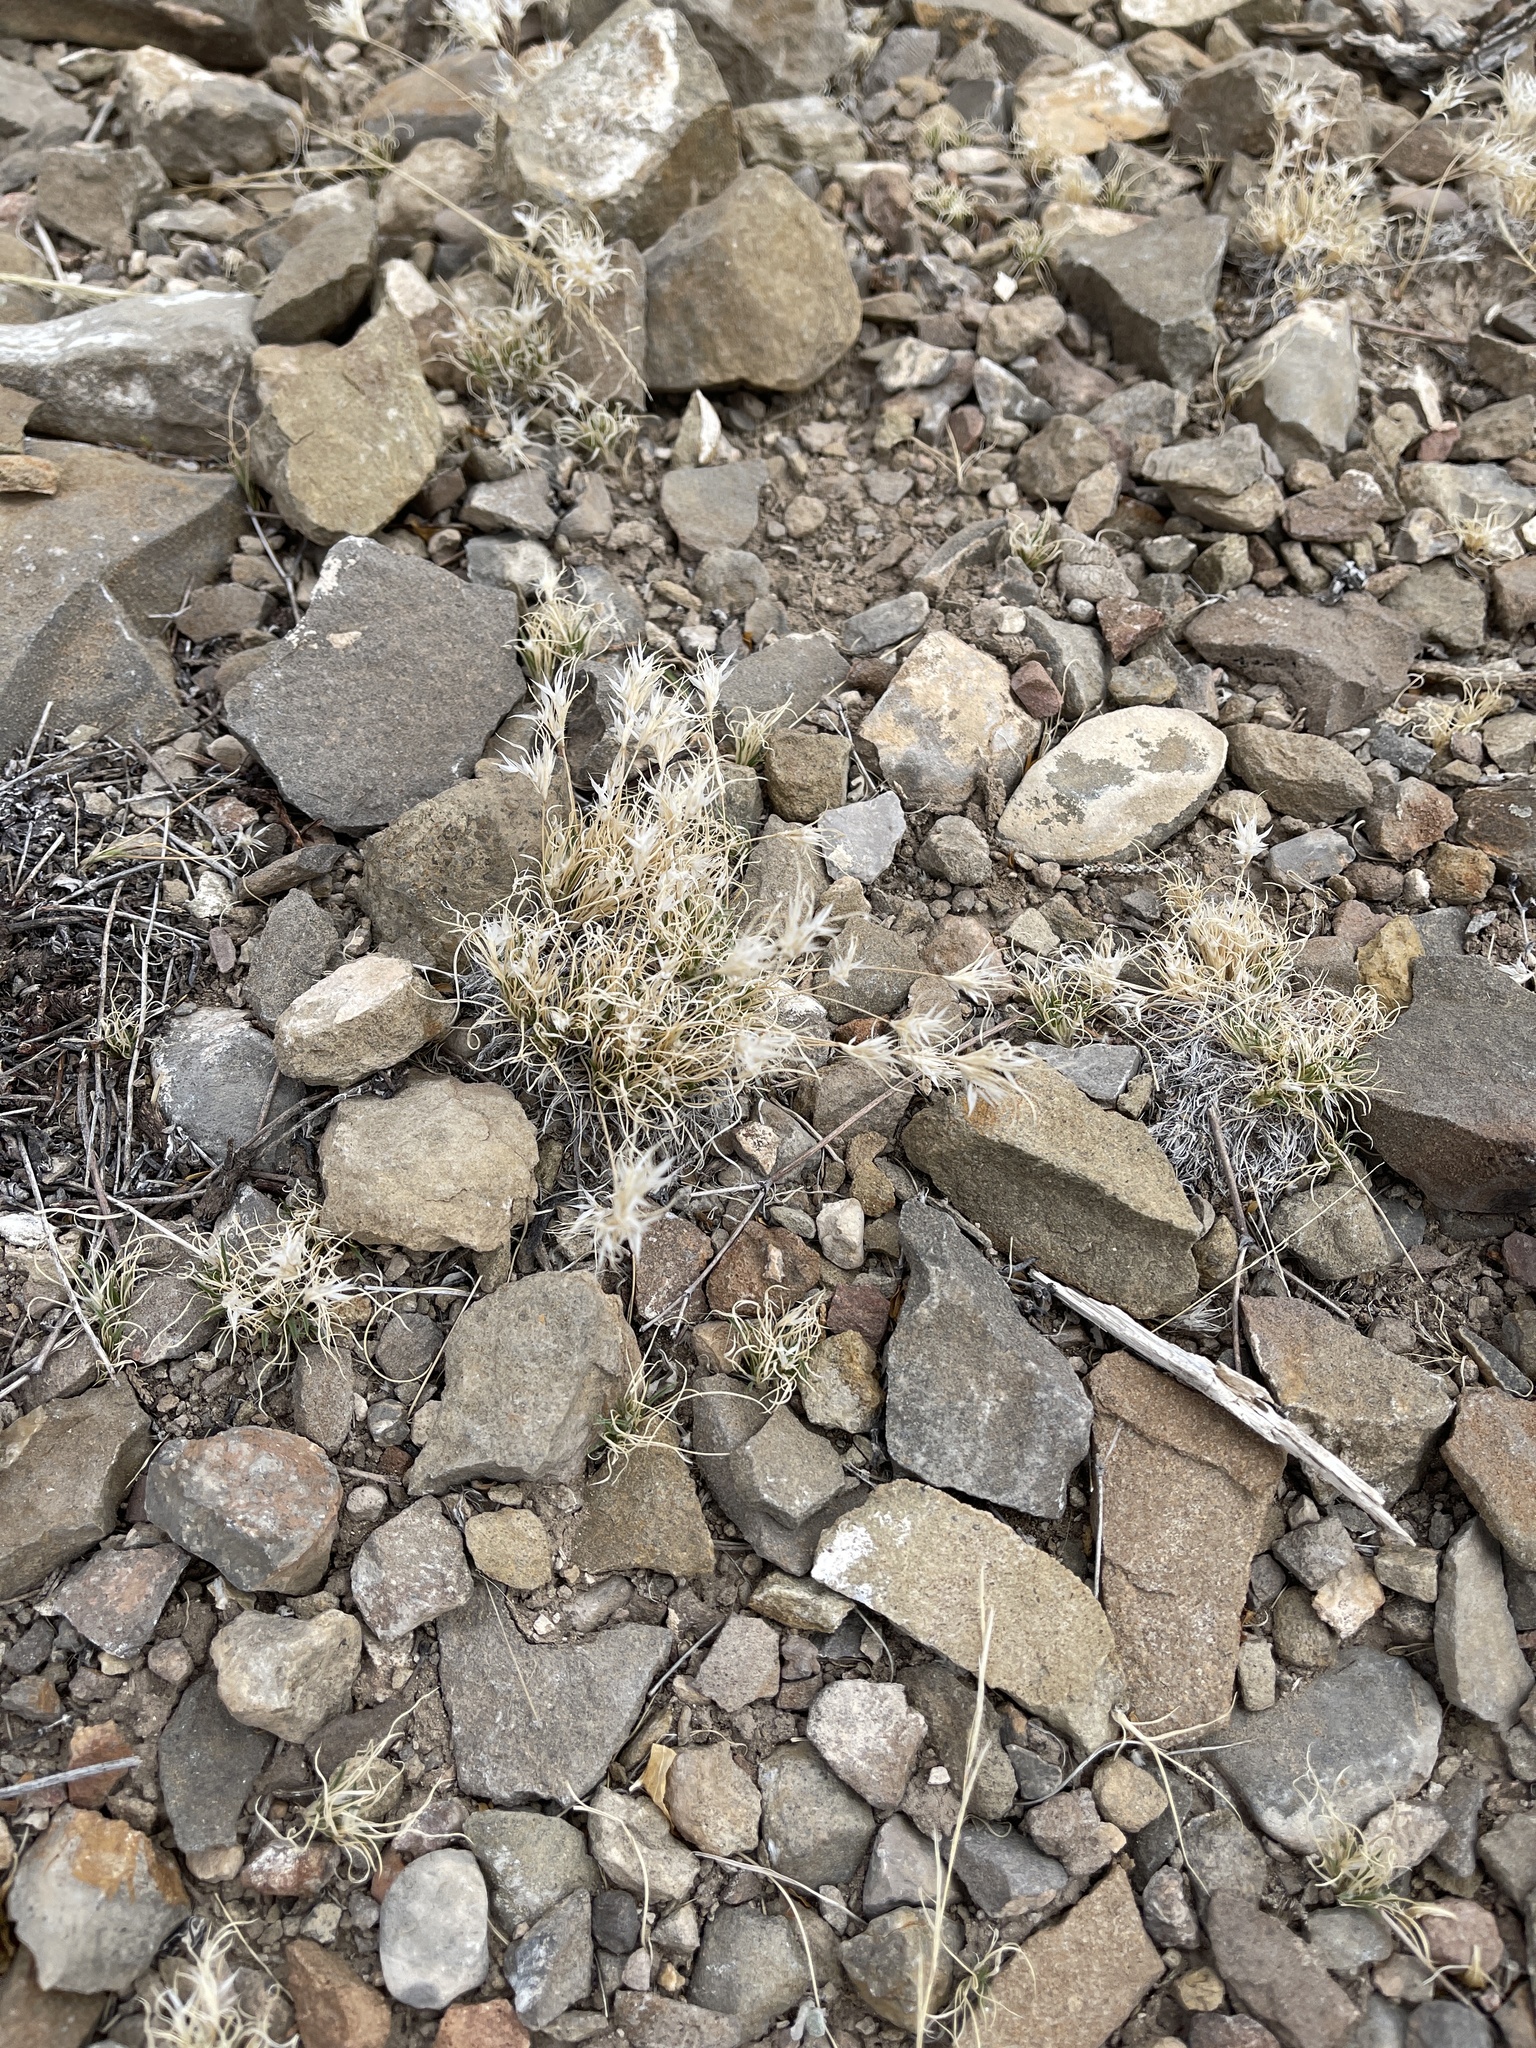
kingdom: Plantae
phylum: Tracheophyta
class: Liliopsida
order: Poales
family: Poaceae
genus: Dasyochloa
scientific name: Dasyochloa pulchella
